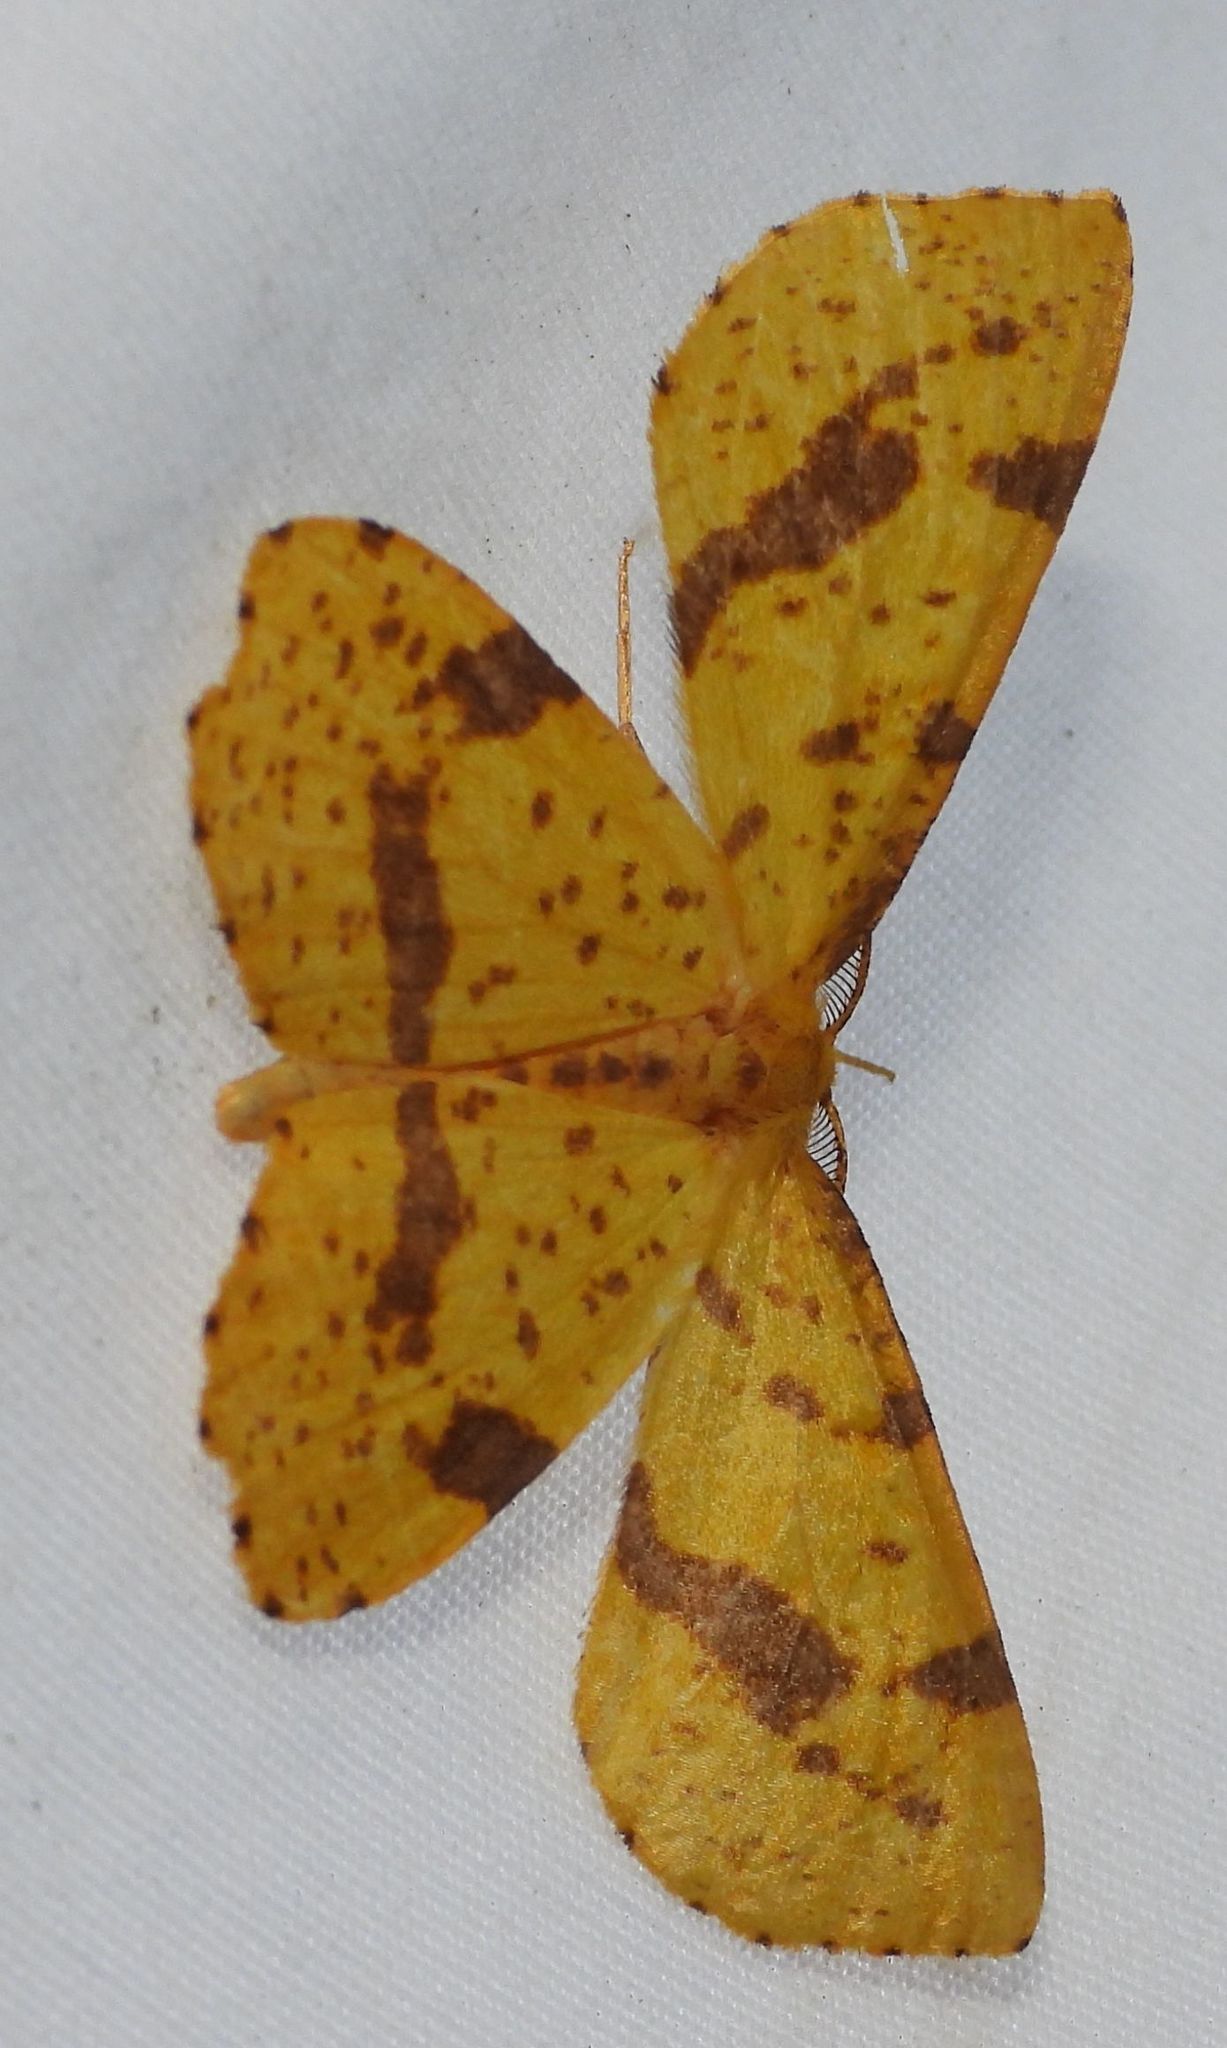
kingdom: Animalia
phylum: Arthropoda
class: Insecta
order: Lepidoptera
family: Geometridae
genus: Xanthotype
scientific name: Xanthotype
